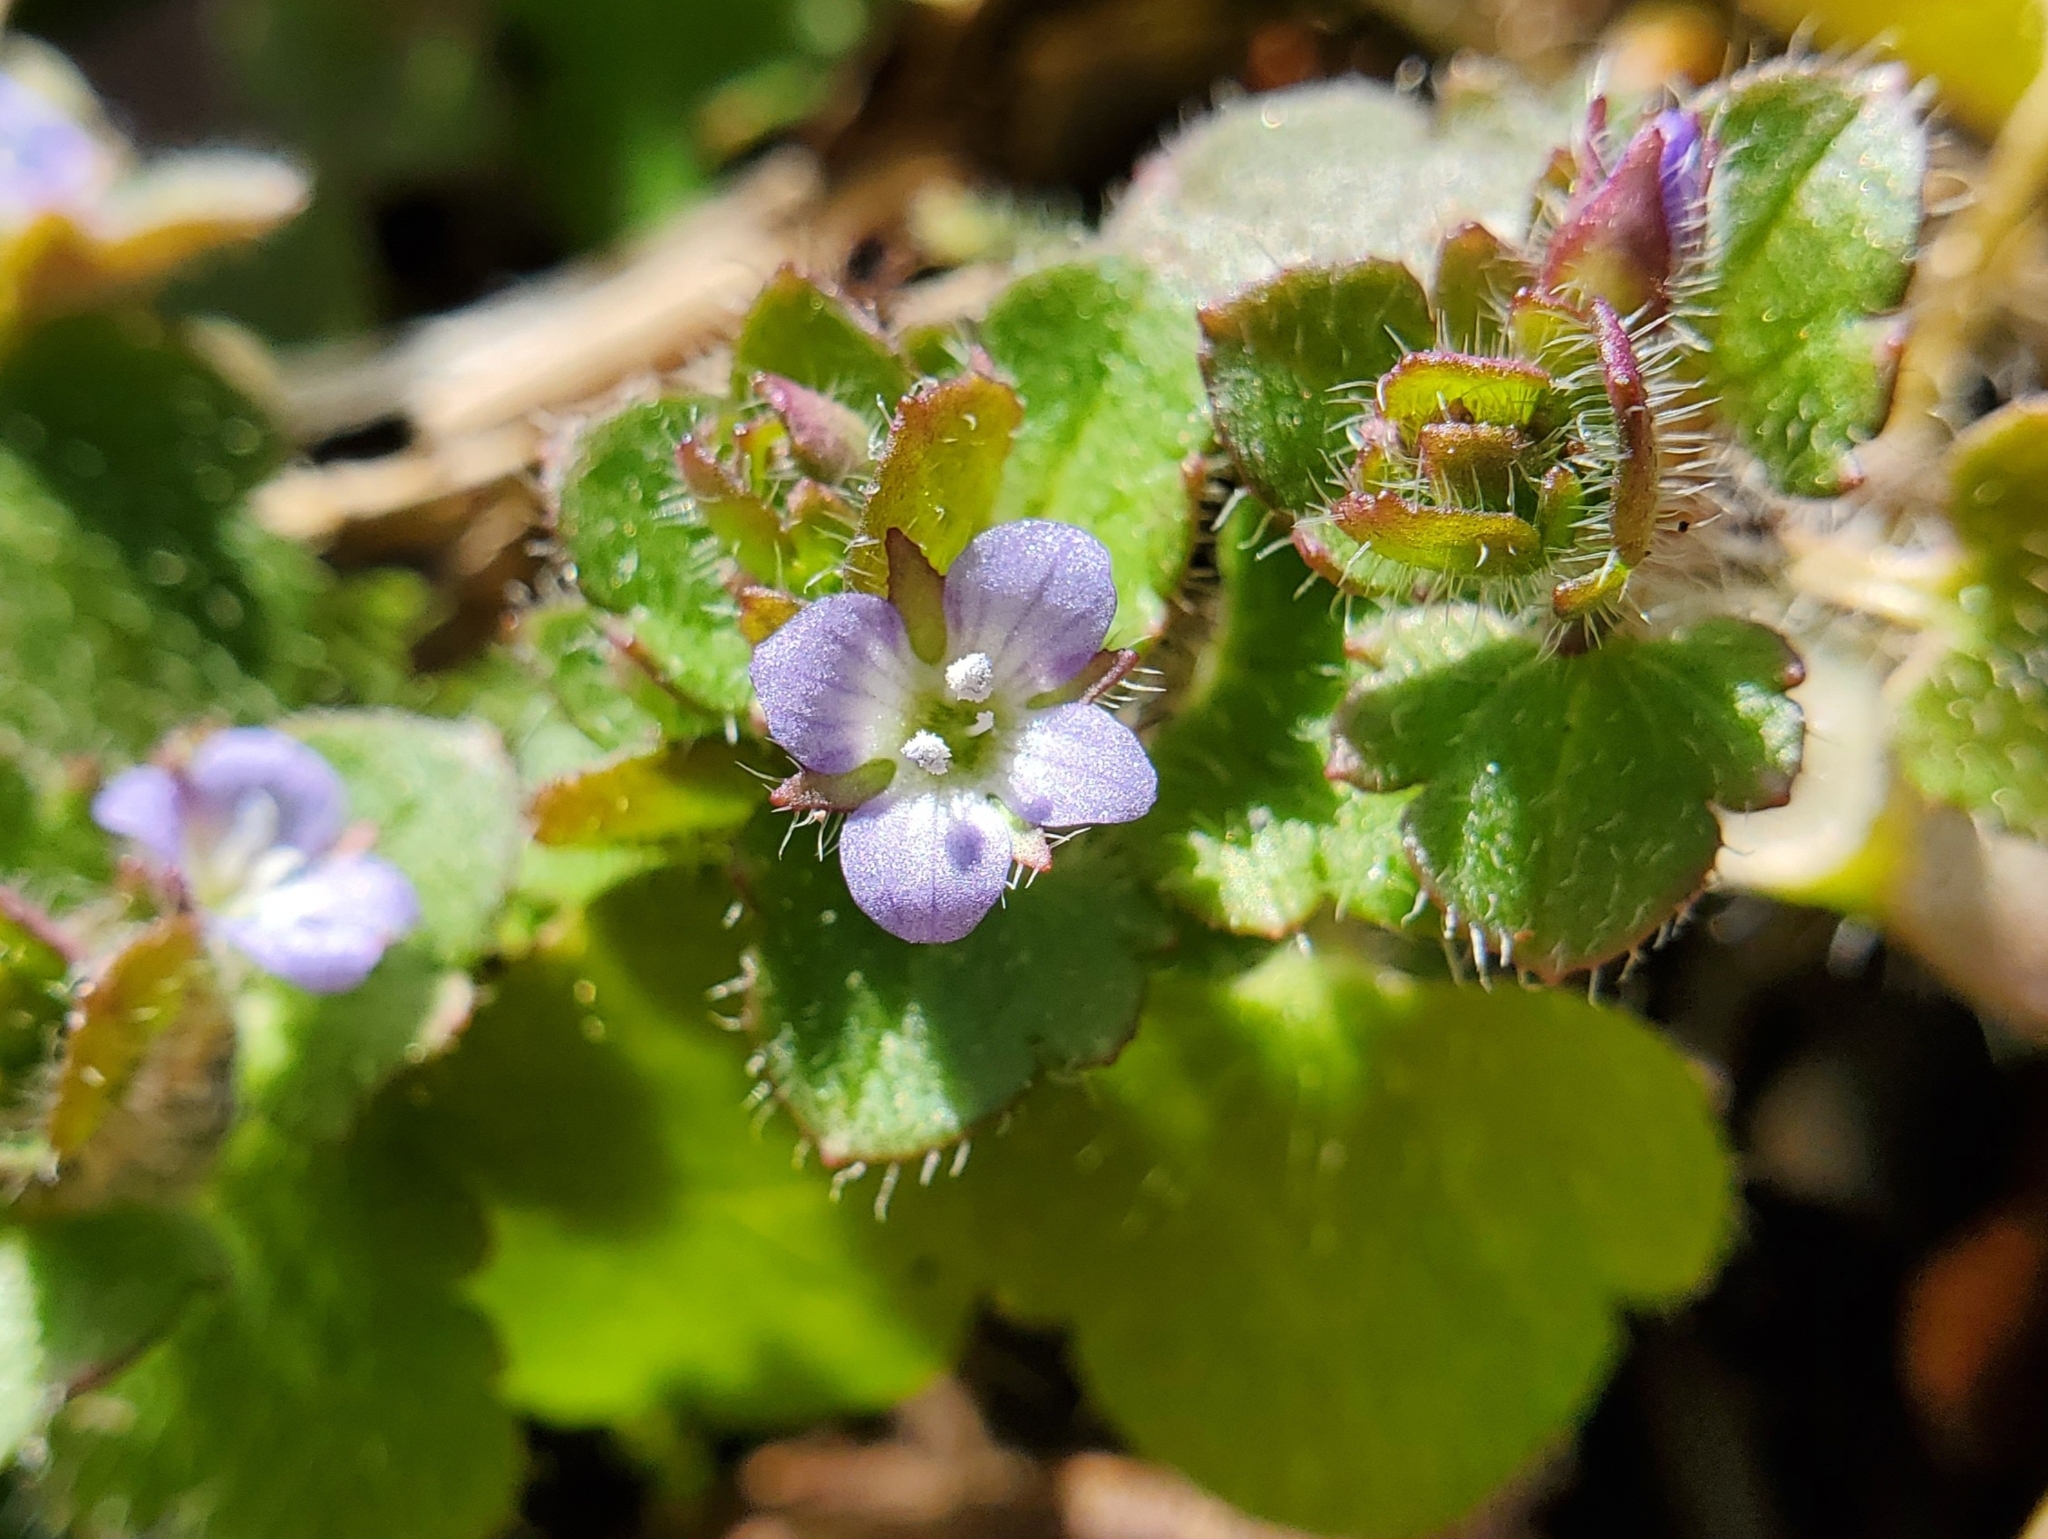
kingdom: Plantae
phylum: Tracheophyta
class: Magnoliopsida
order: Lamiales
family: Plantaginaceae
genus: Veronica
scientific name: Veronica hederifolia
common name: Ivy-leaved speedwell
